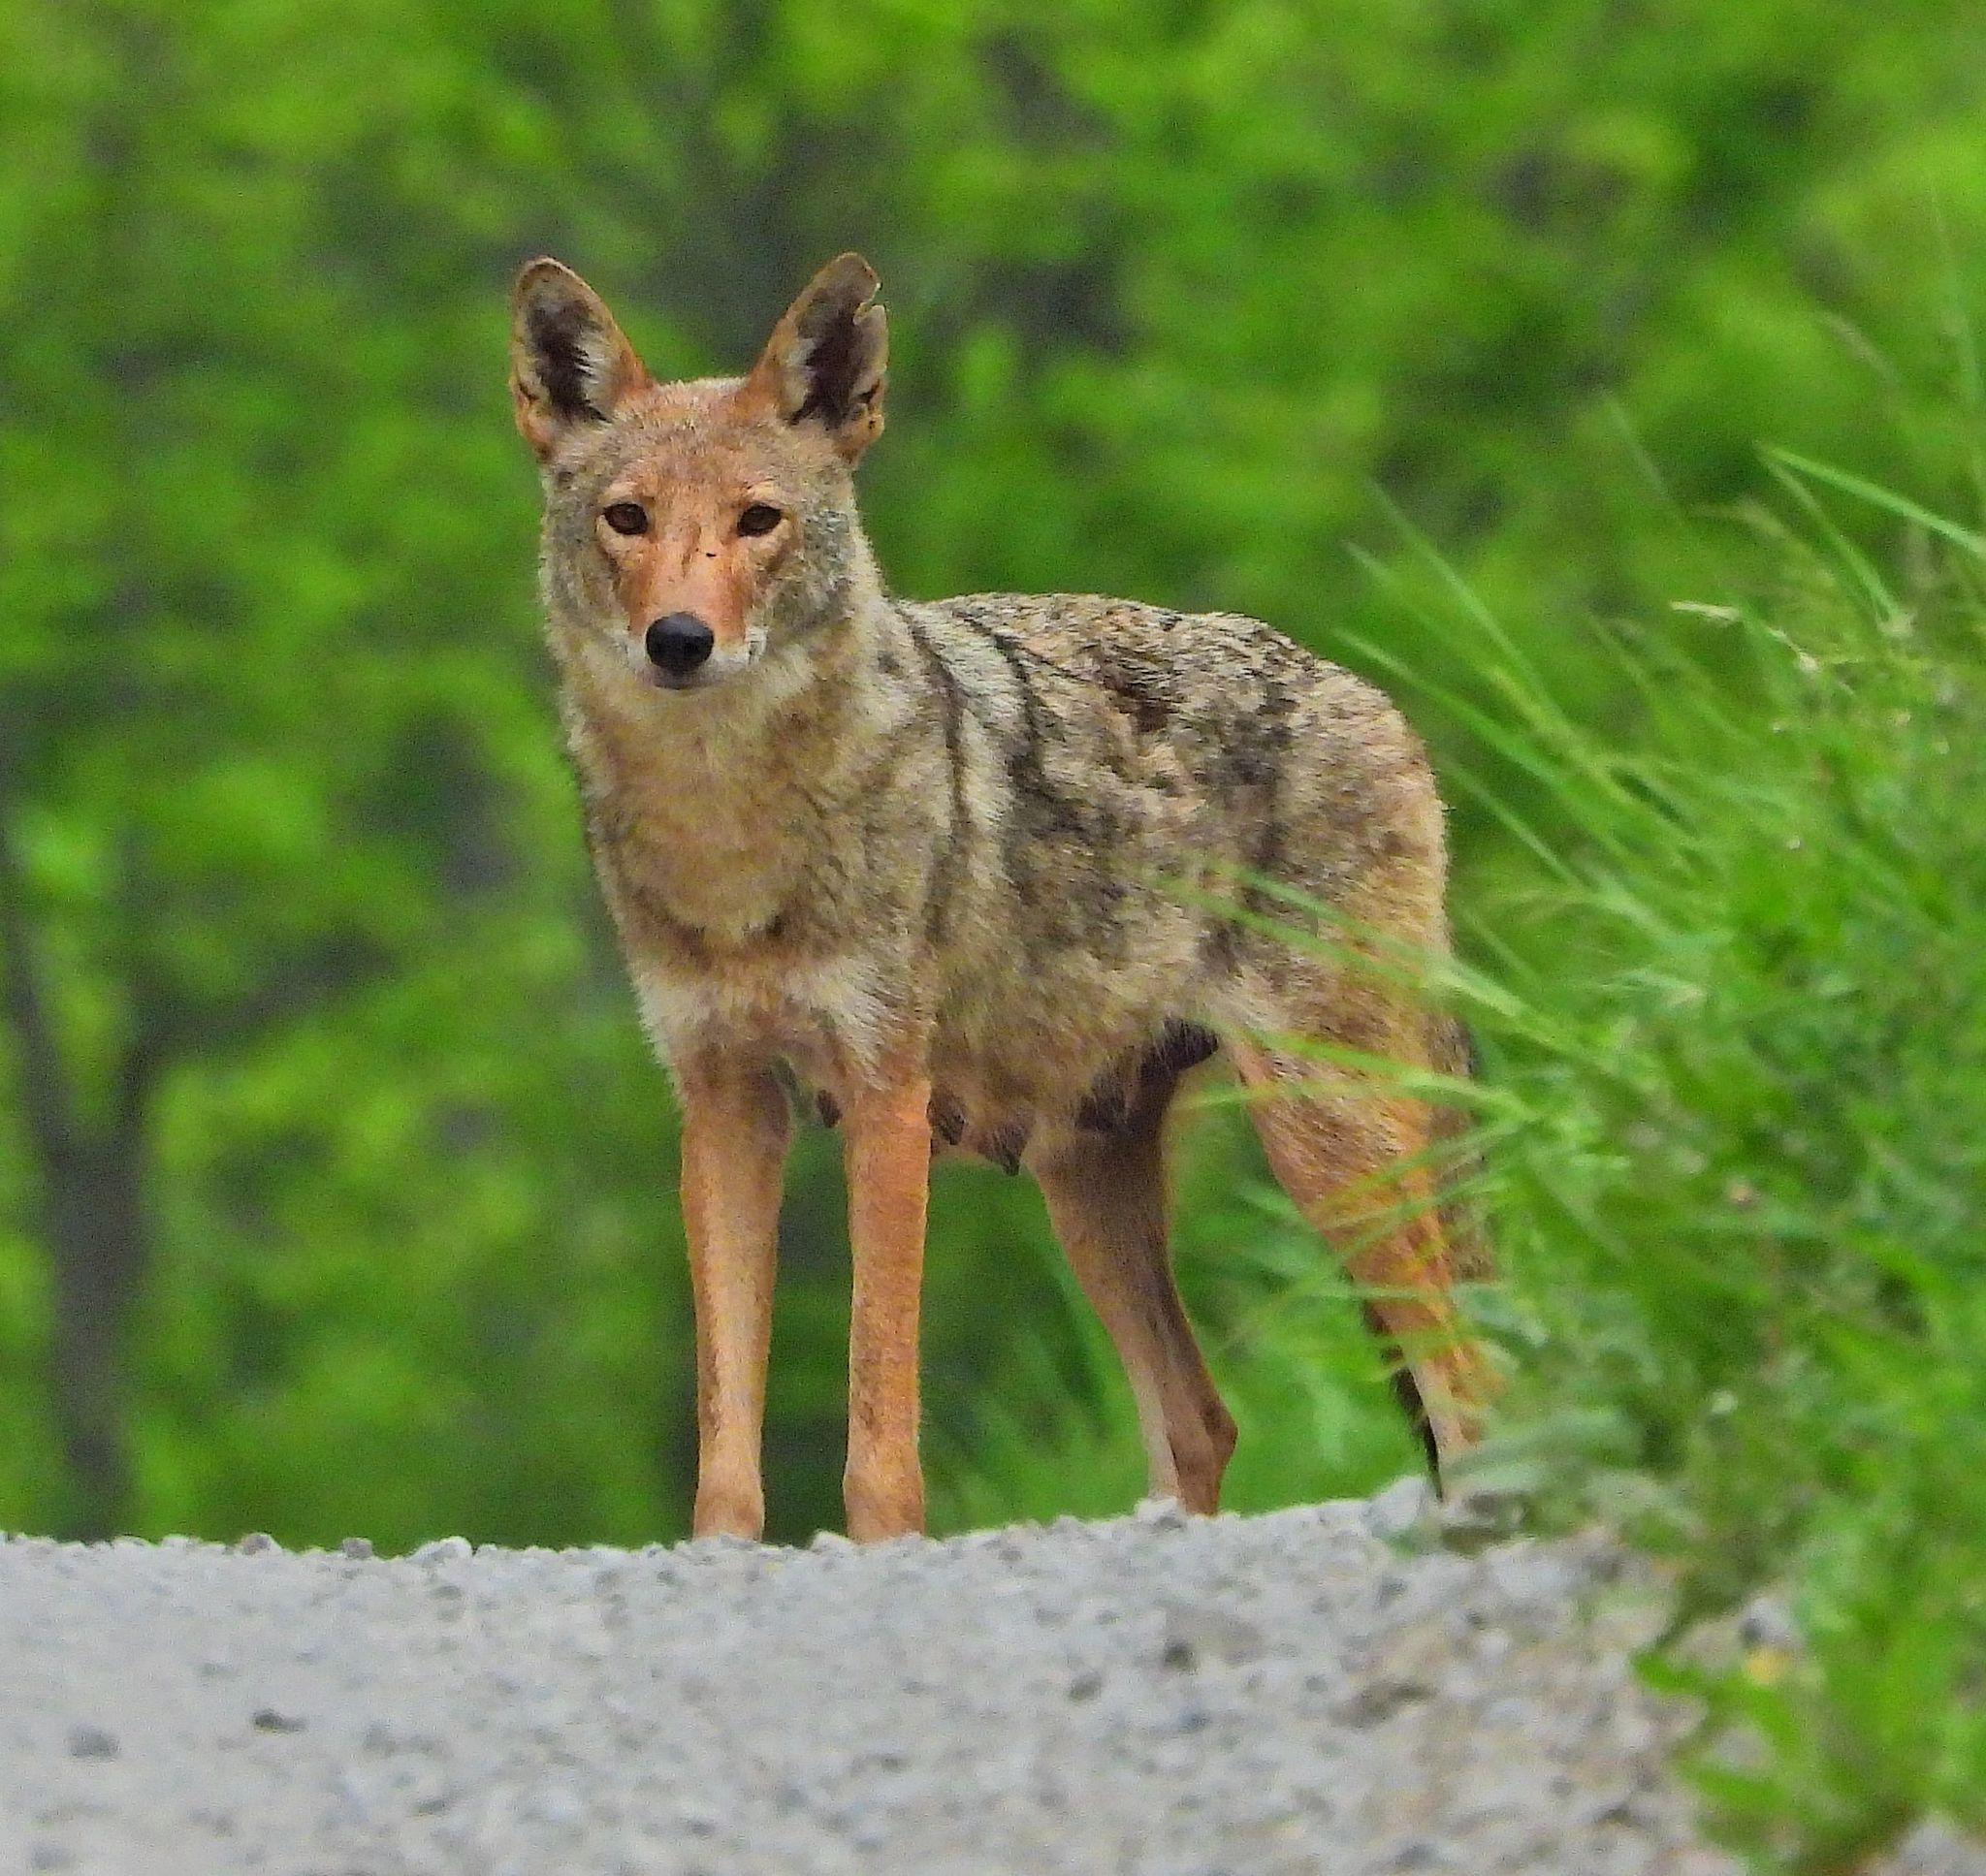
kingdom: Animalia
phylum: Chordata
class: Mammalia
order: Carnivora
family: Canidae
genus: Canis
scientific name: Canis latrans
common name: Coyote
